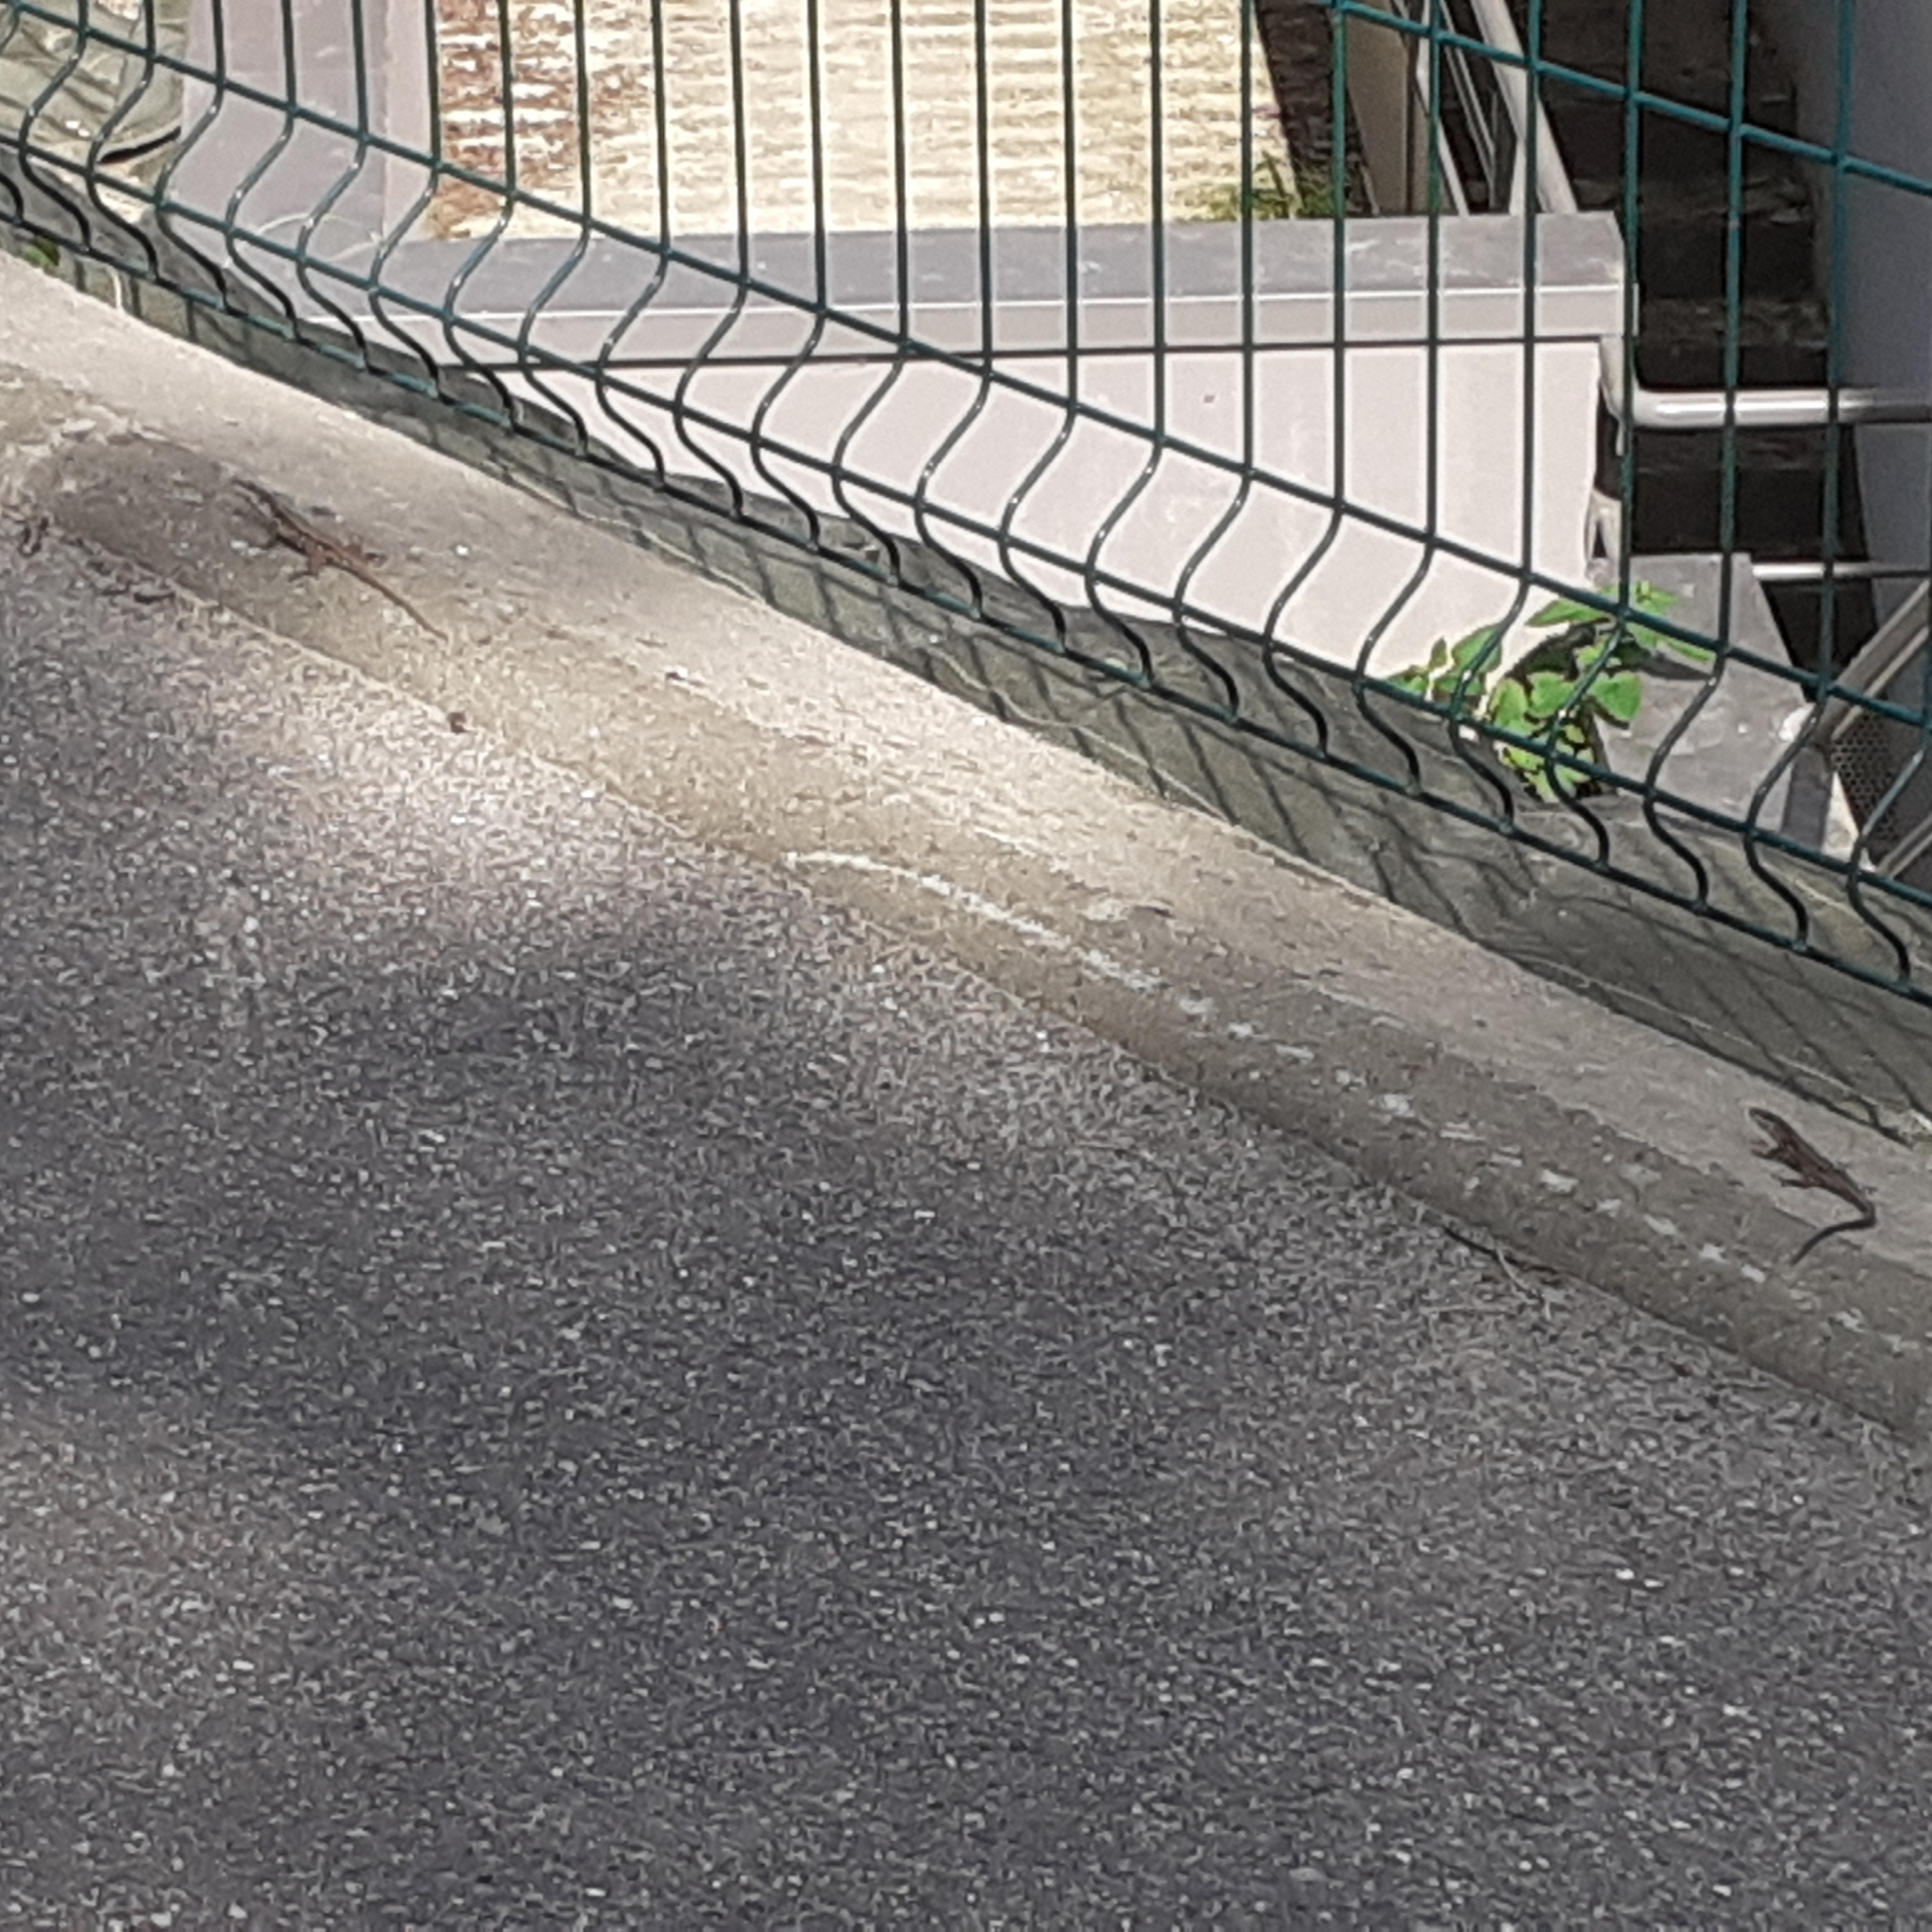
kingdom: Animalia
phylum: Chordata
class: Squamata
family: Lacertidae
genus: Podarcis
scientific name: Podarcis muralis
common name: Common wall lizard
